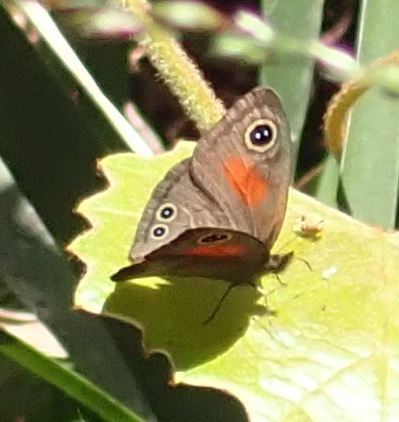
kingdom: Animalia
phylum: Arthropoda
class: Insecta
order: Lepidoptera
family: Nymphalidae
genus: Cassionympha
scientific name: Cassionympha cassius
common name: Rainforest brown
